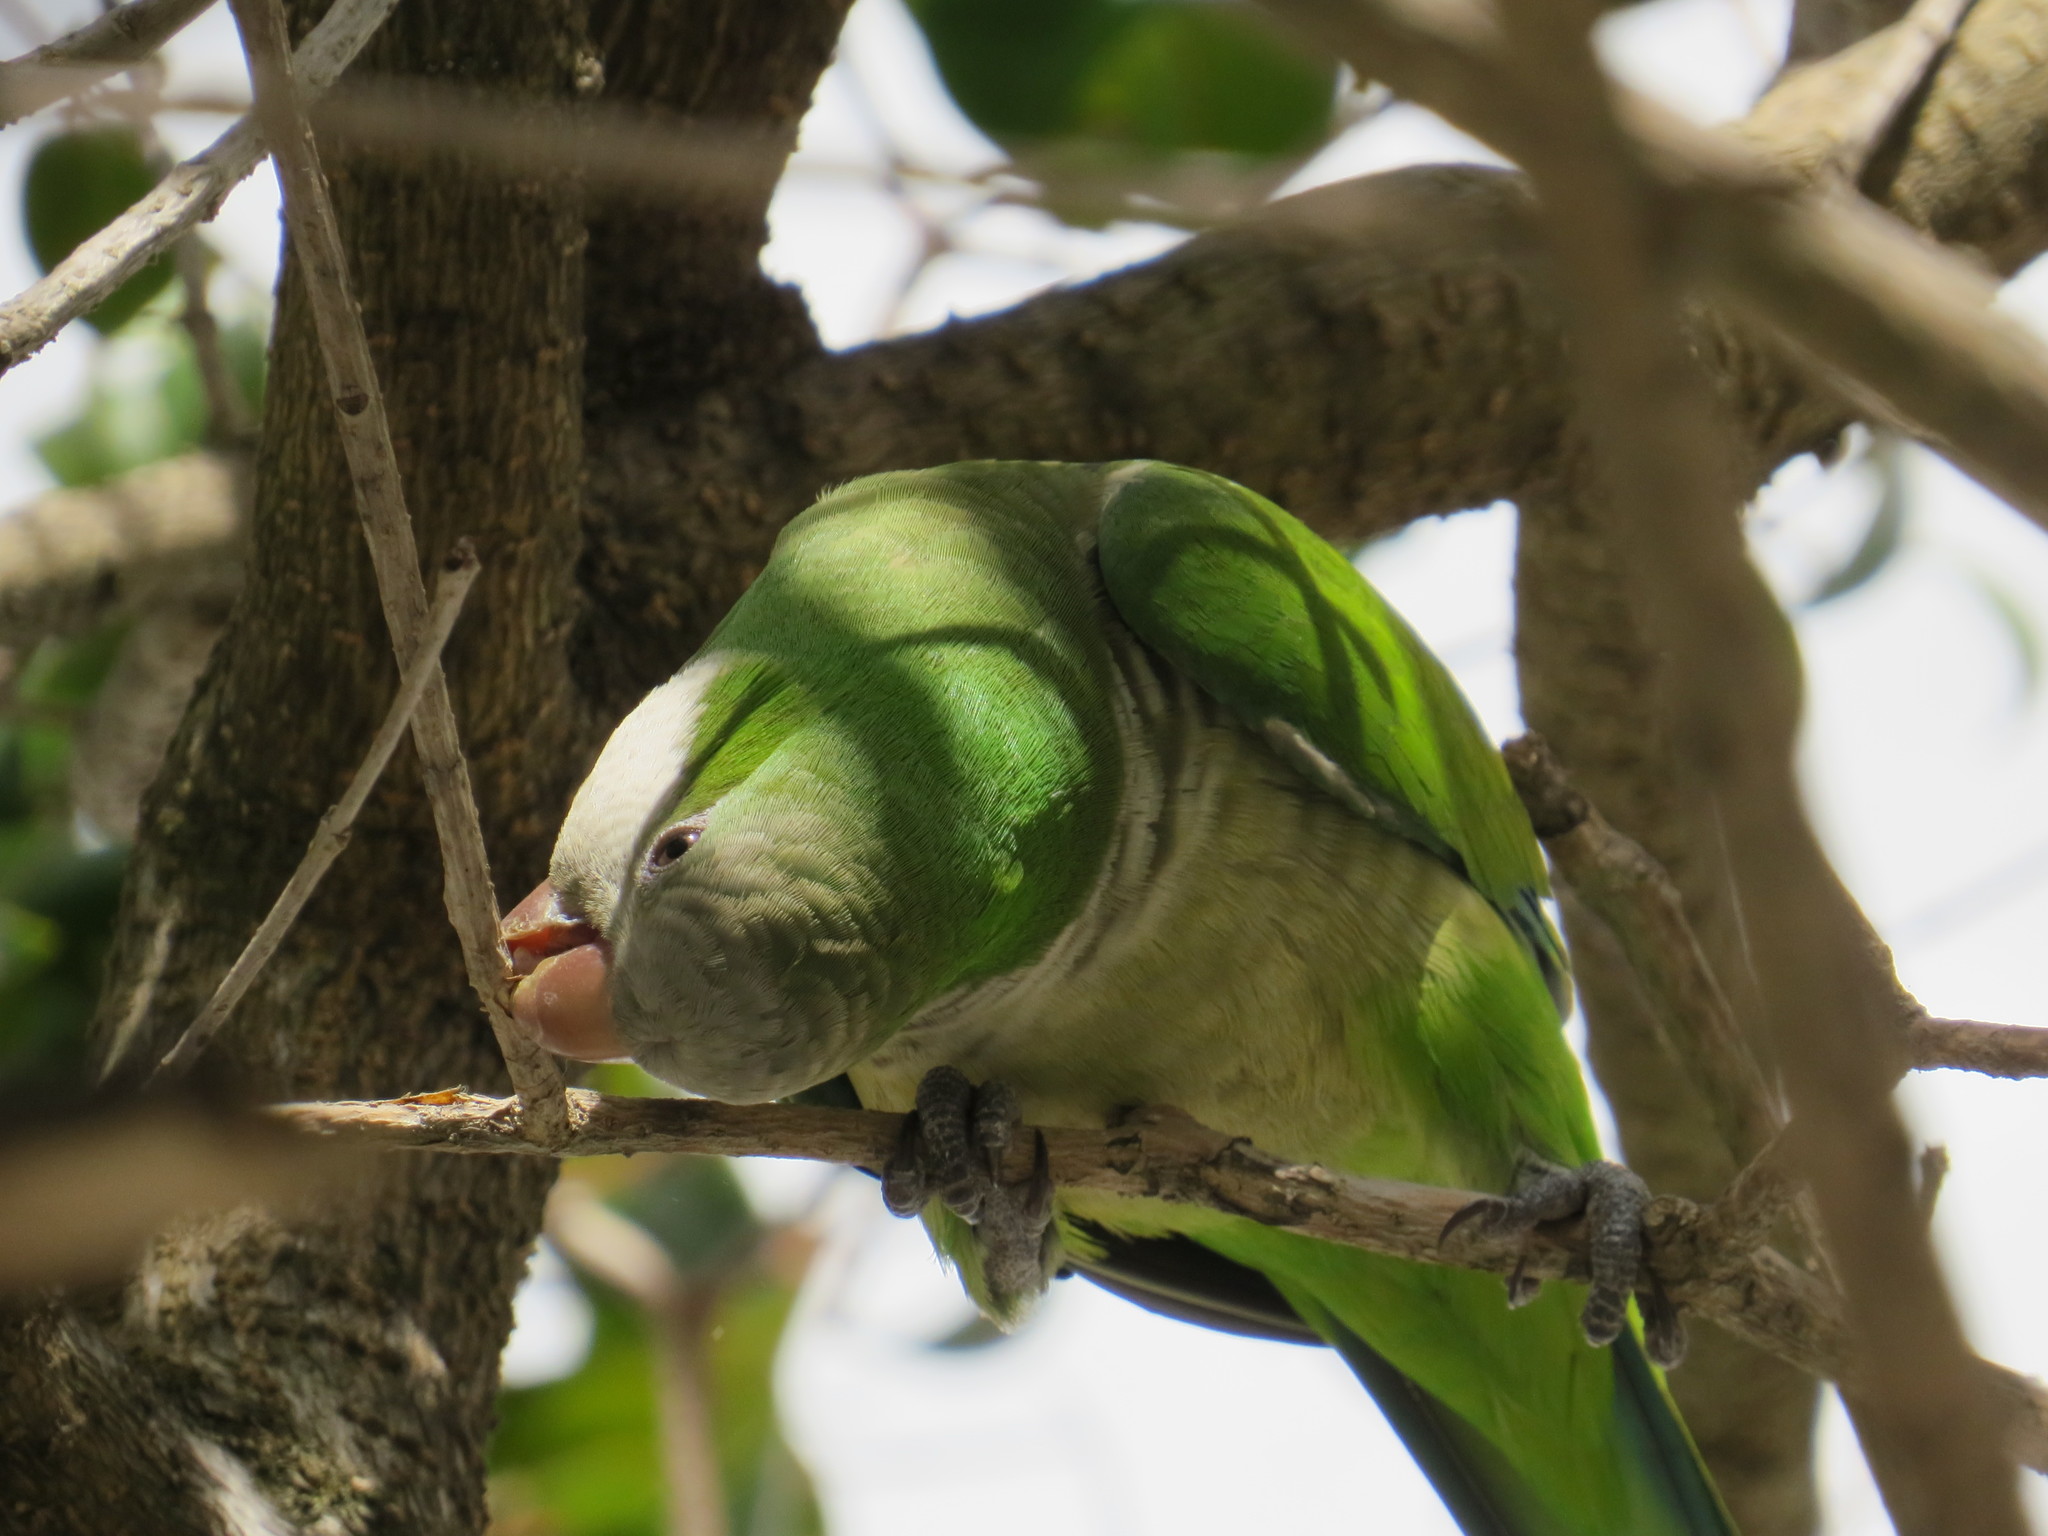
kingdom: Animalia
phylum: Chordata
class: Aves
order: Psittaciformes
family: Psittacidae
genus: Myiopsitta
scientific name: Myiopsitta monachus
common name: Monk parakeet
